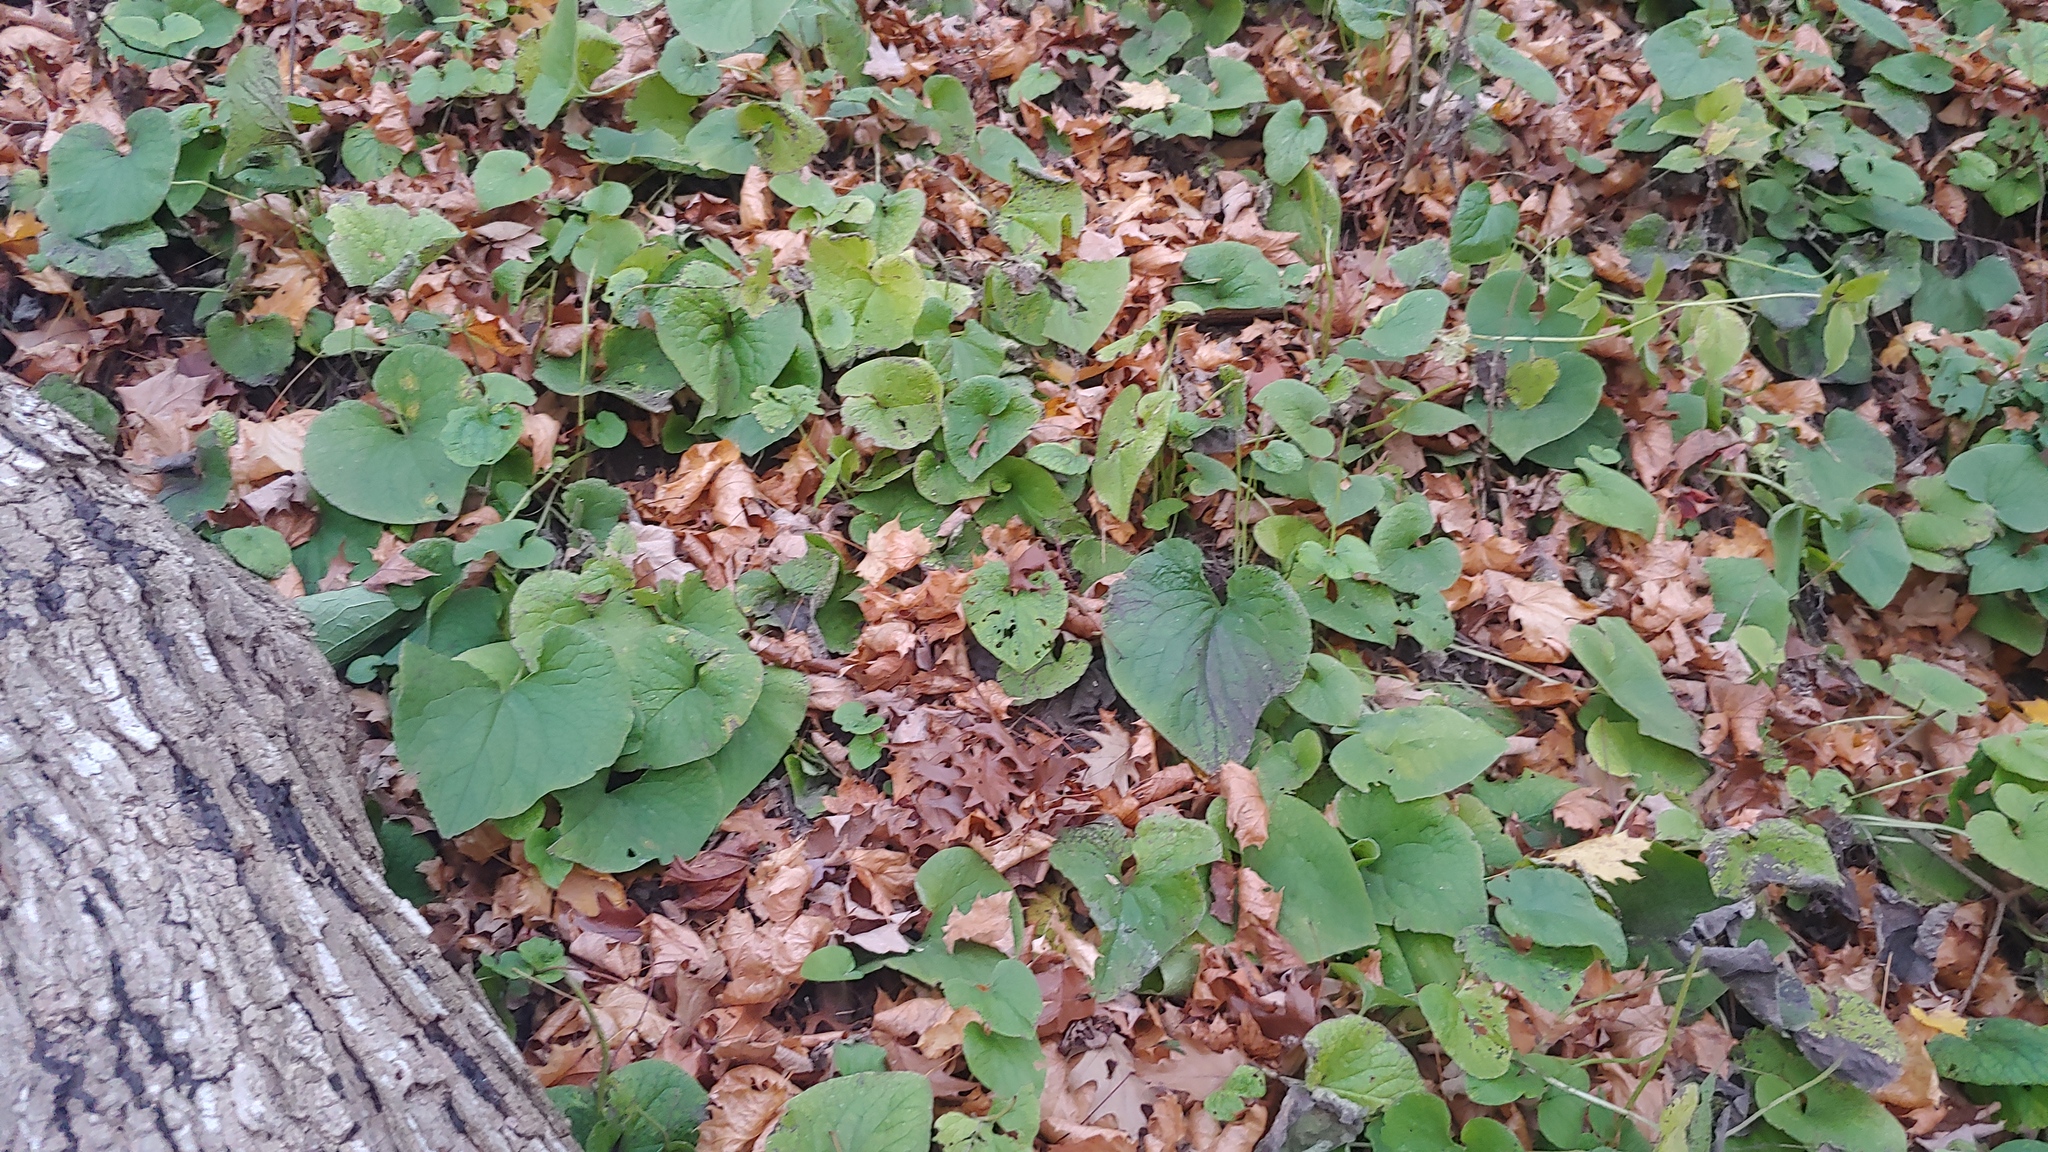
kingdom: Plantae
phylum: Tracheophyta
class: Magnoliopsida
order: Boraginales
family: Boraginaceae
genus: Brunnera
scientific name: Brunnera macrophylla
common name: Great forget-me-not
